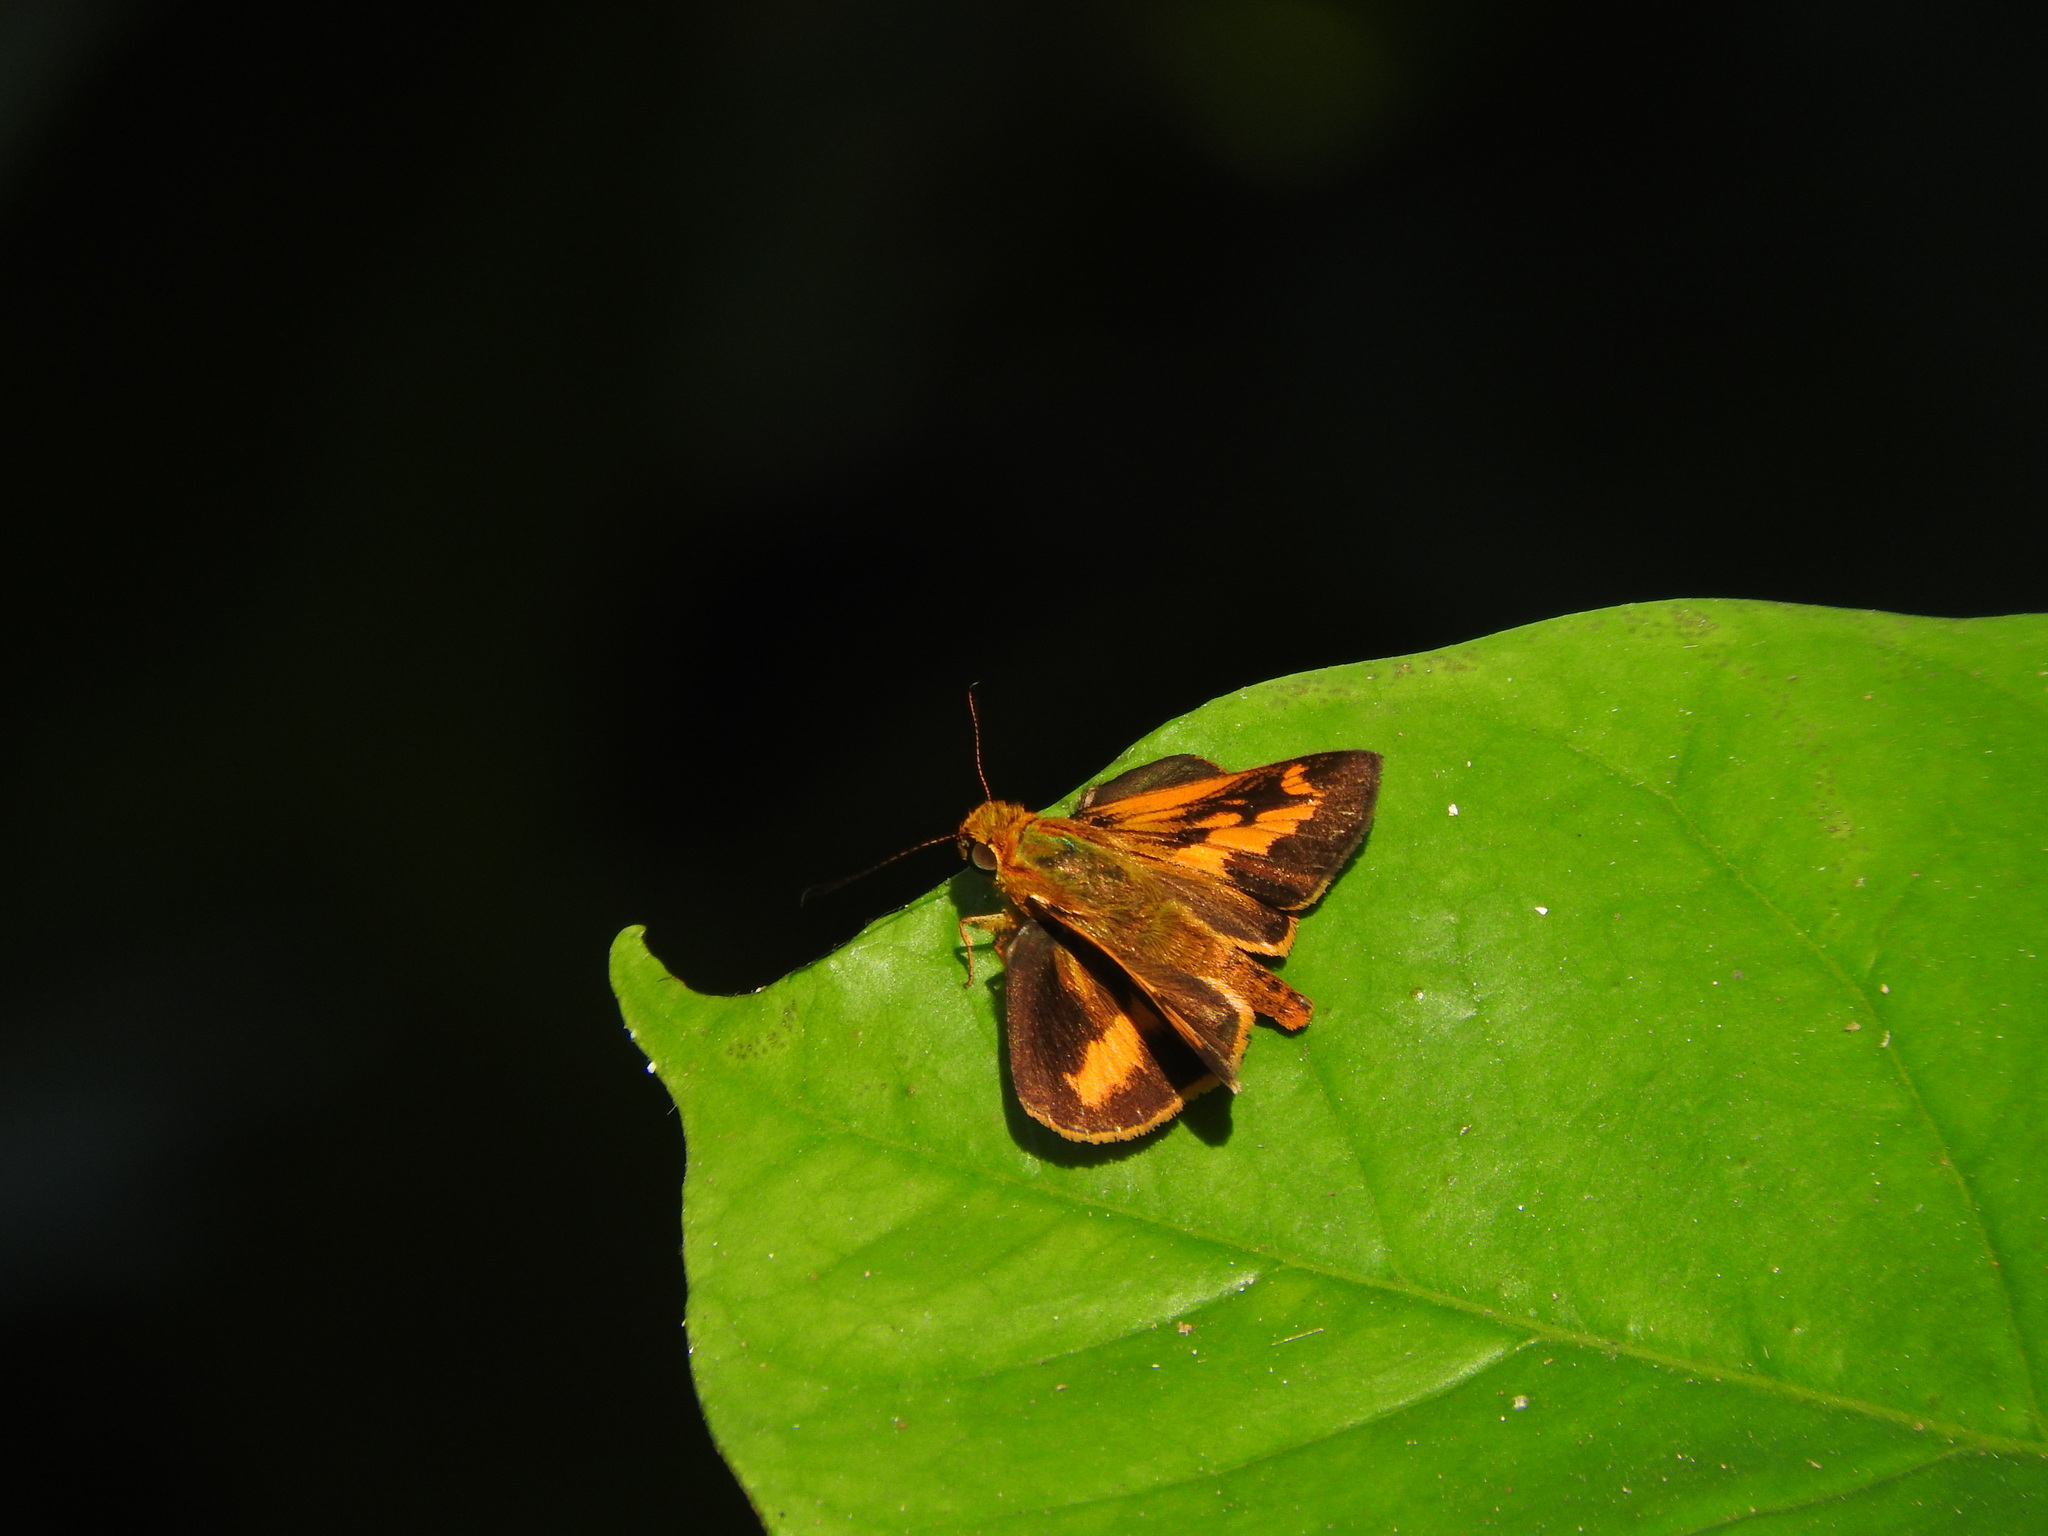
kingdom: Animalia
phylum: Arthropoda
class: Insecta
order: Lepidoptera
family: Hesperiidae
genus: Oriens
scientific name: Oriens goloides
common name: Smaller dartlet
